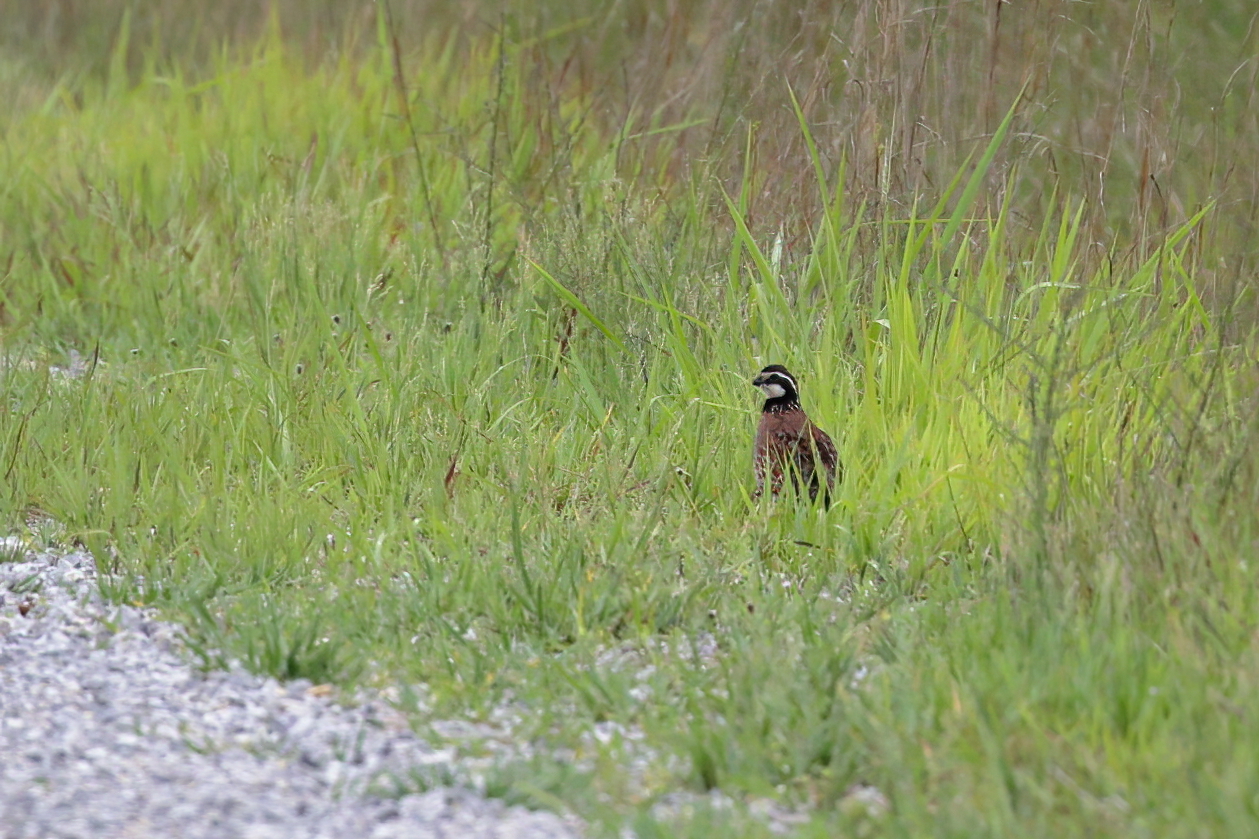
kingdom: Animalia
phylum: Chordata
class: Aves
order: Galliformes
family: Odontophoridae
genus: Colinus
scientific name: Colinus virginianus
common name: Northern bobwhite
